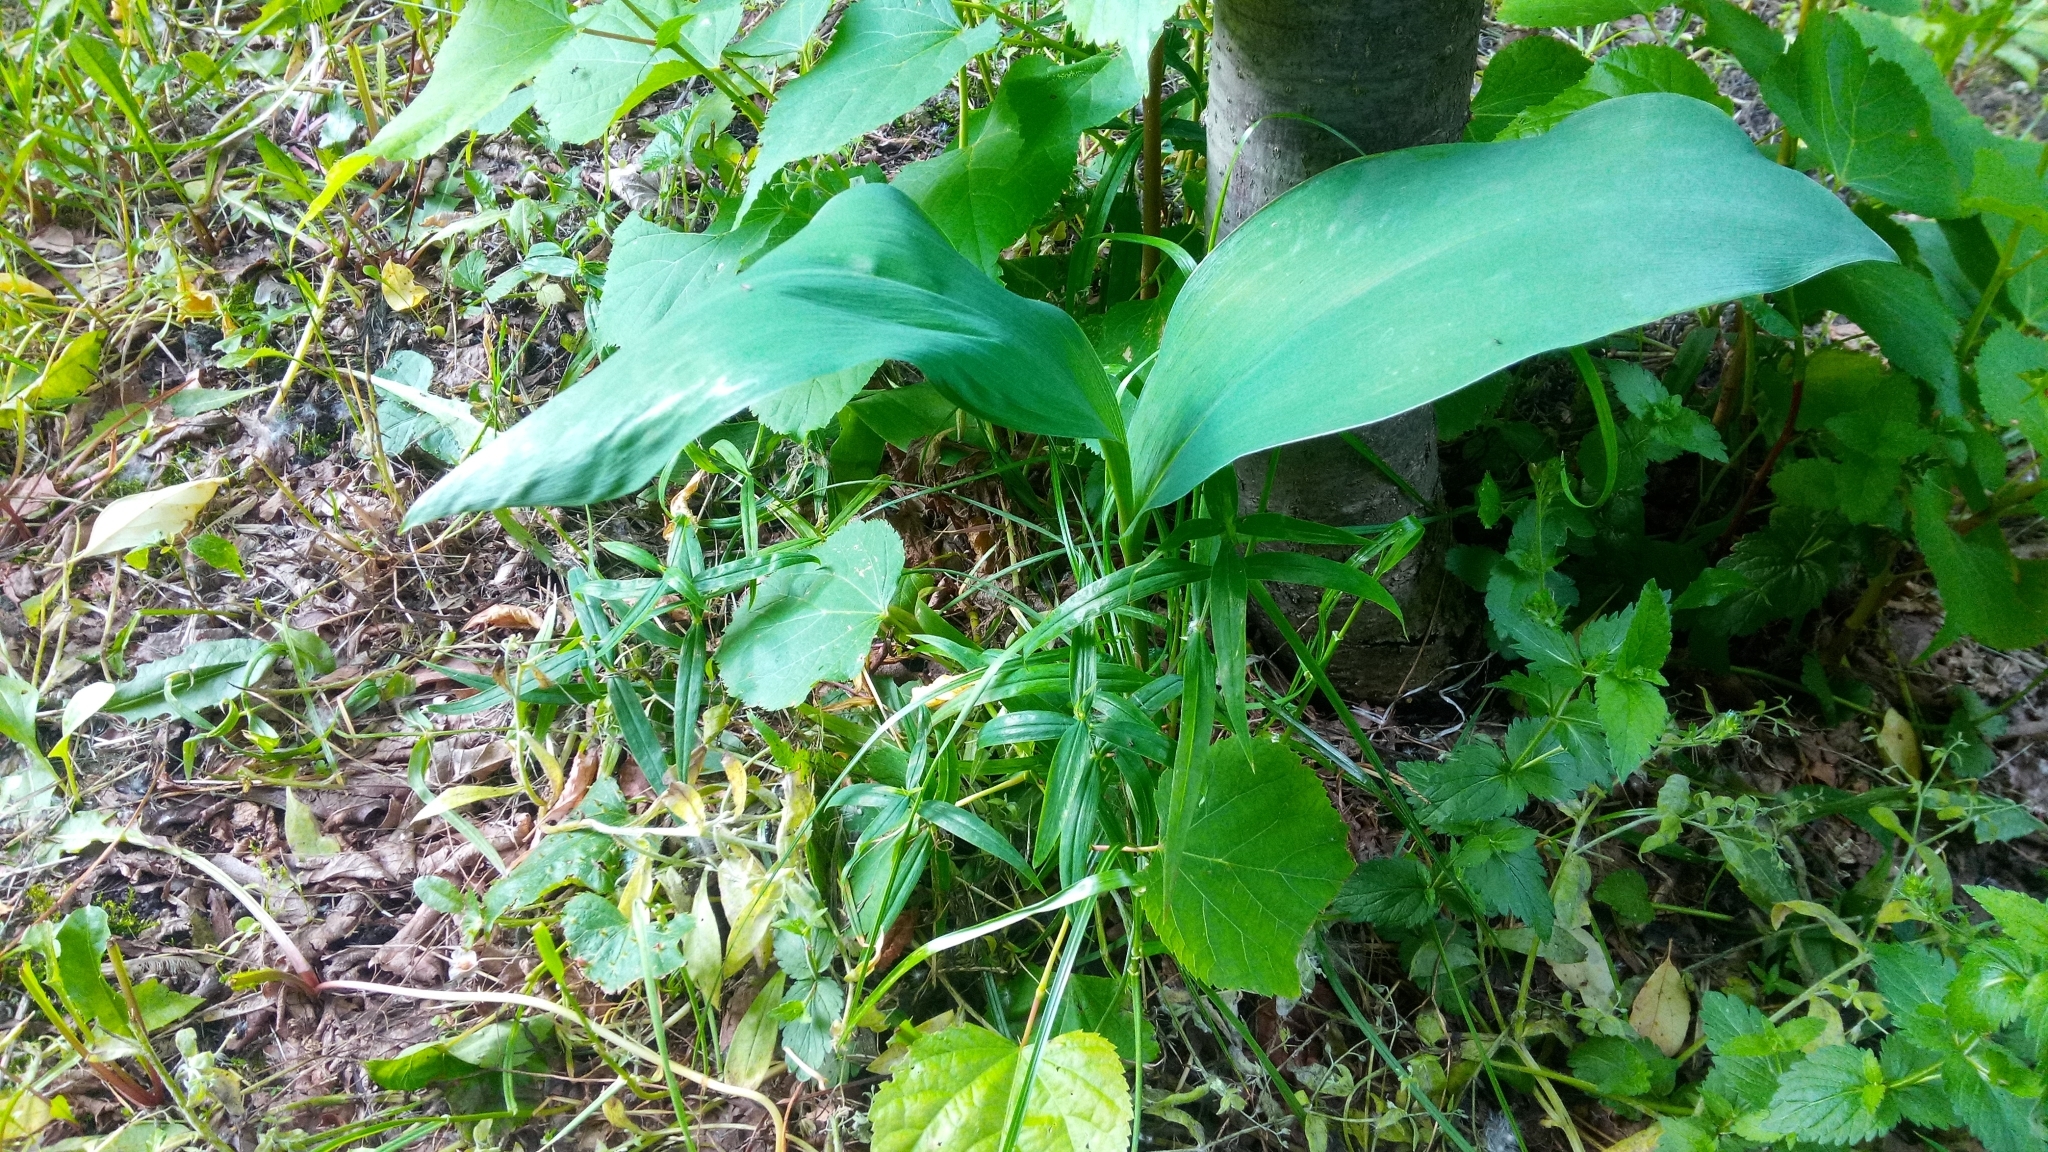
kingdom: Plantae
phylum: Tracheophyta
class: Liliopsida
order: Asparagales
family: Asparagaceae
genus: Convallaria
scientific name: Convallaria majalis
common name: Lily-of-the-valley
